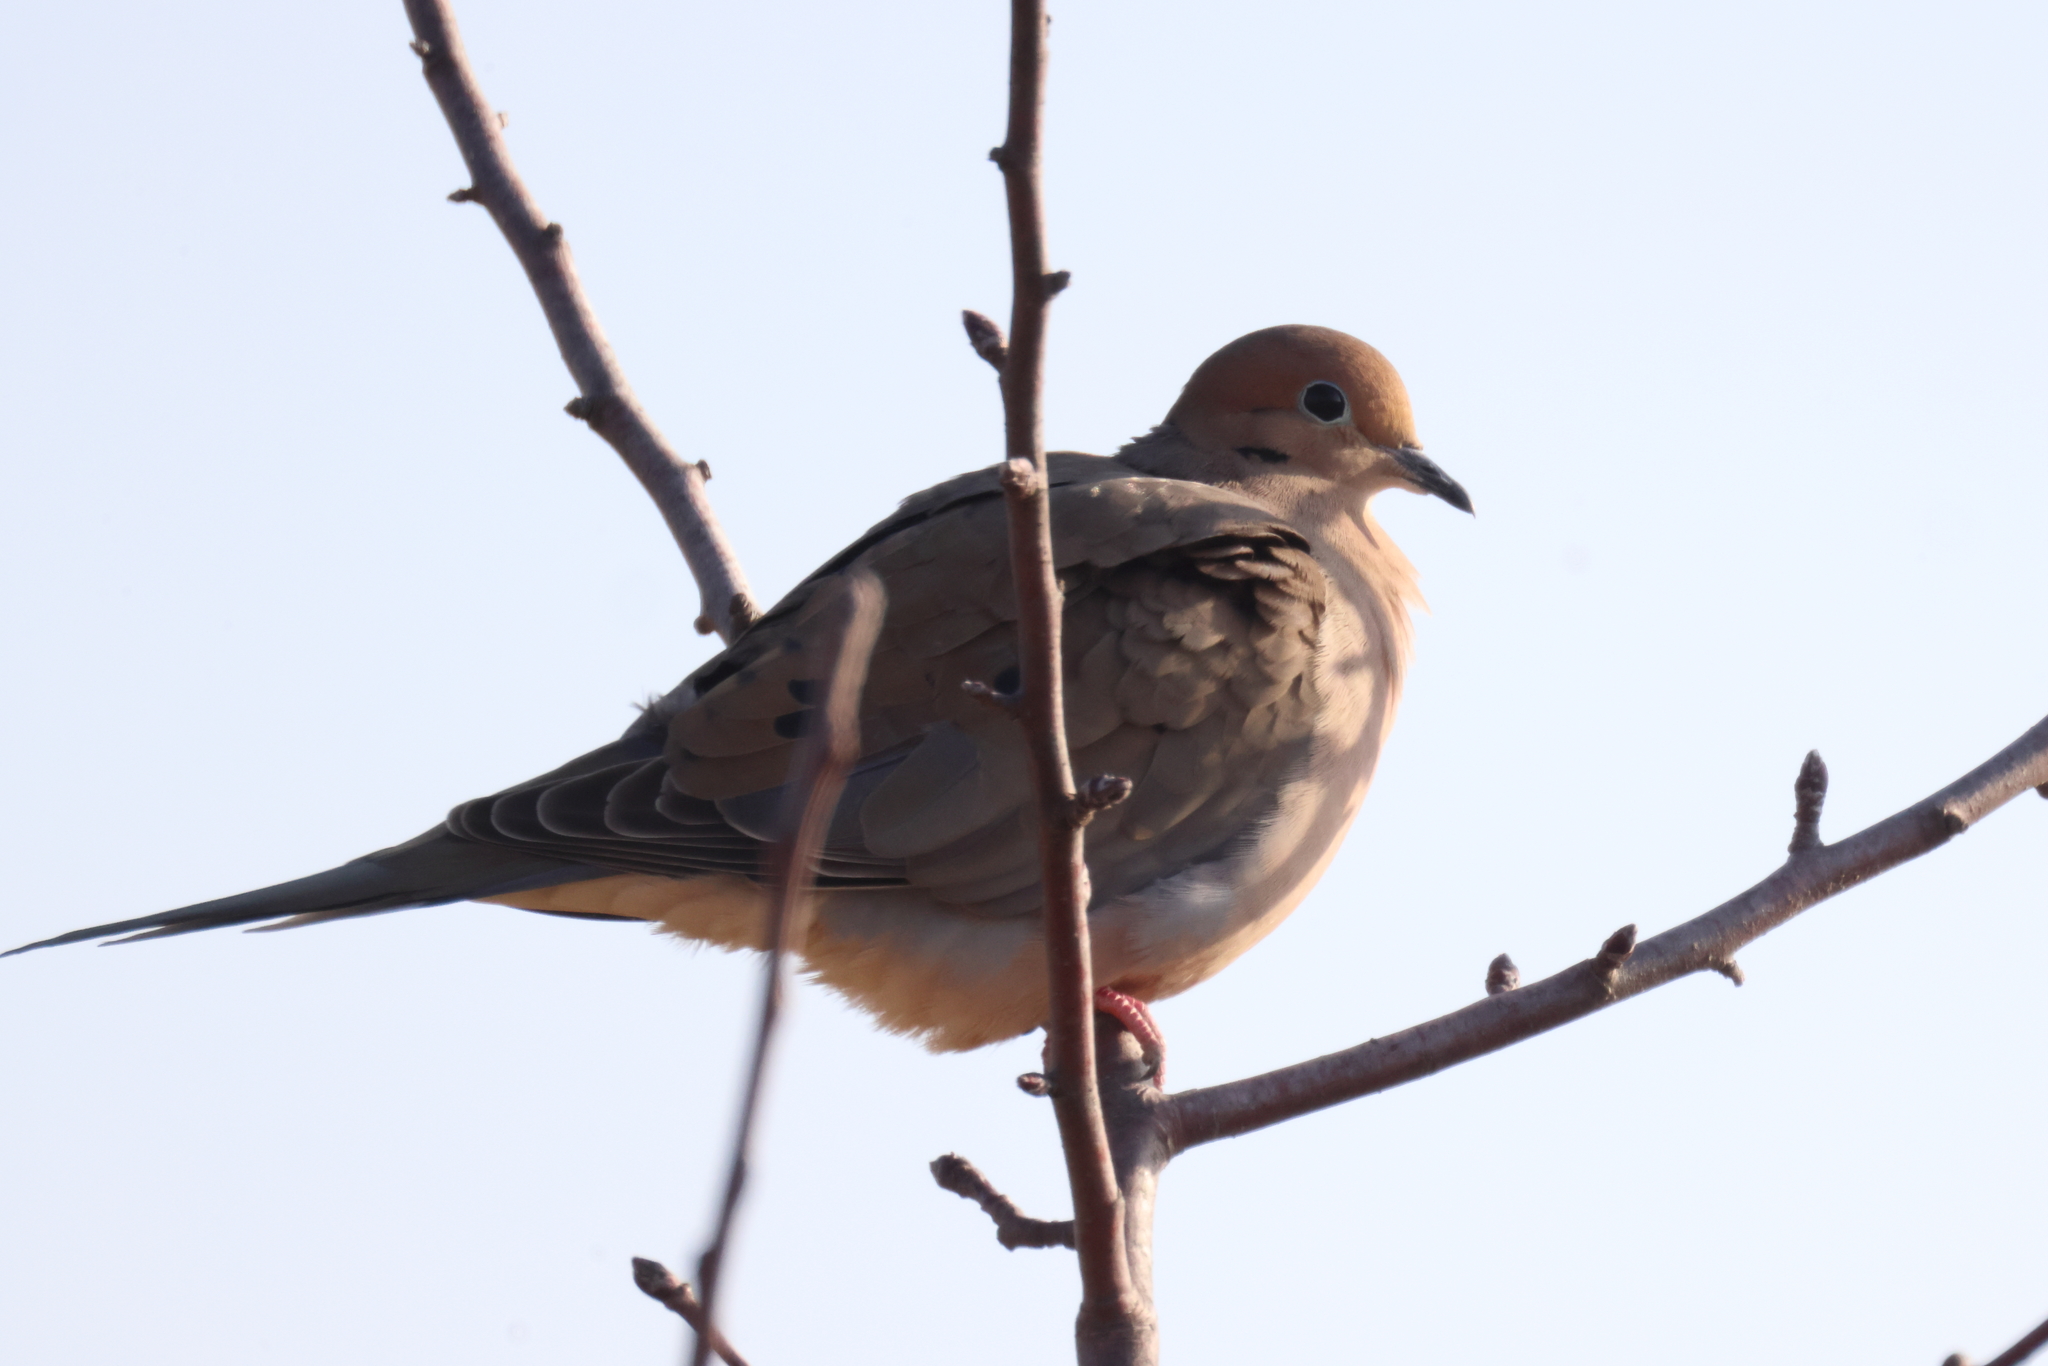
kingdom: Animalia
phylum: Chordata
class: Aves
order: Columbiformes
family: Columbidae
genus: Zenaida
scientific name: Zenaida macroura
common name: Mourning dove
